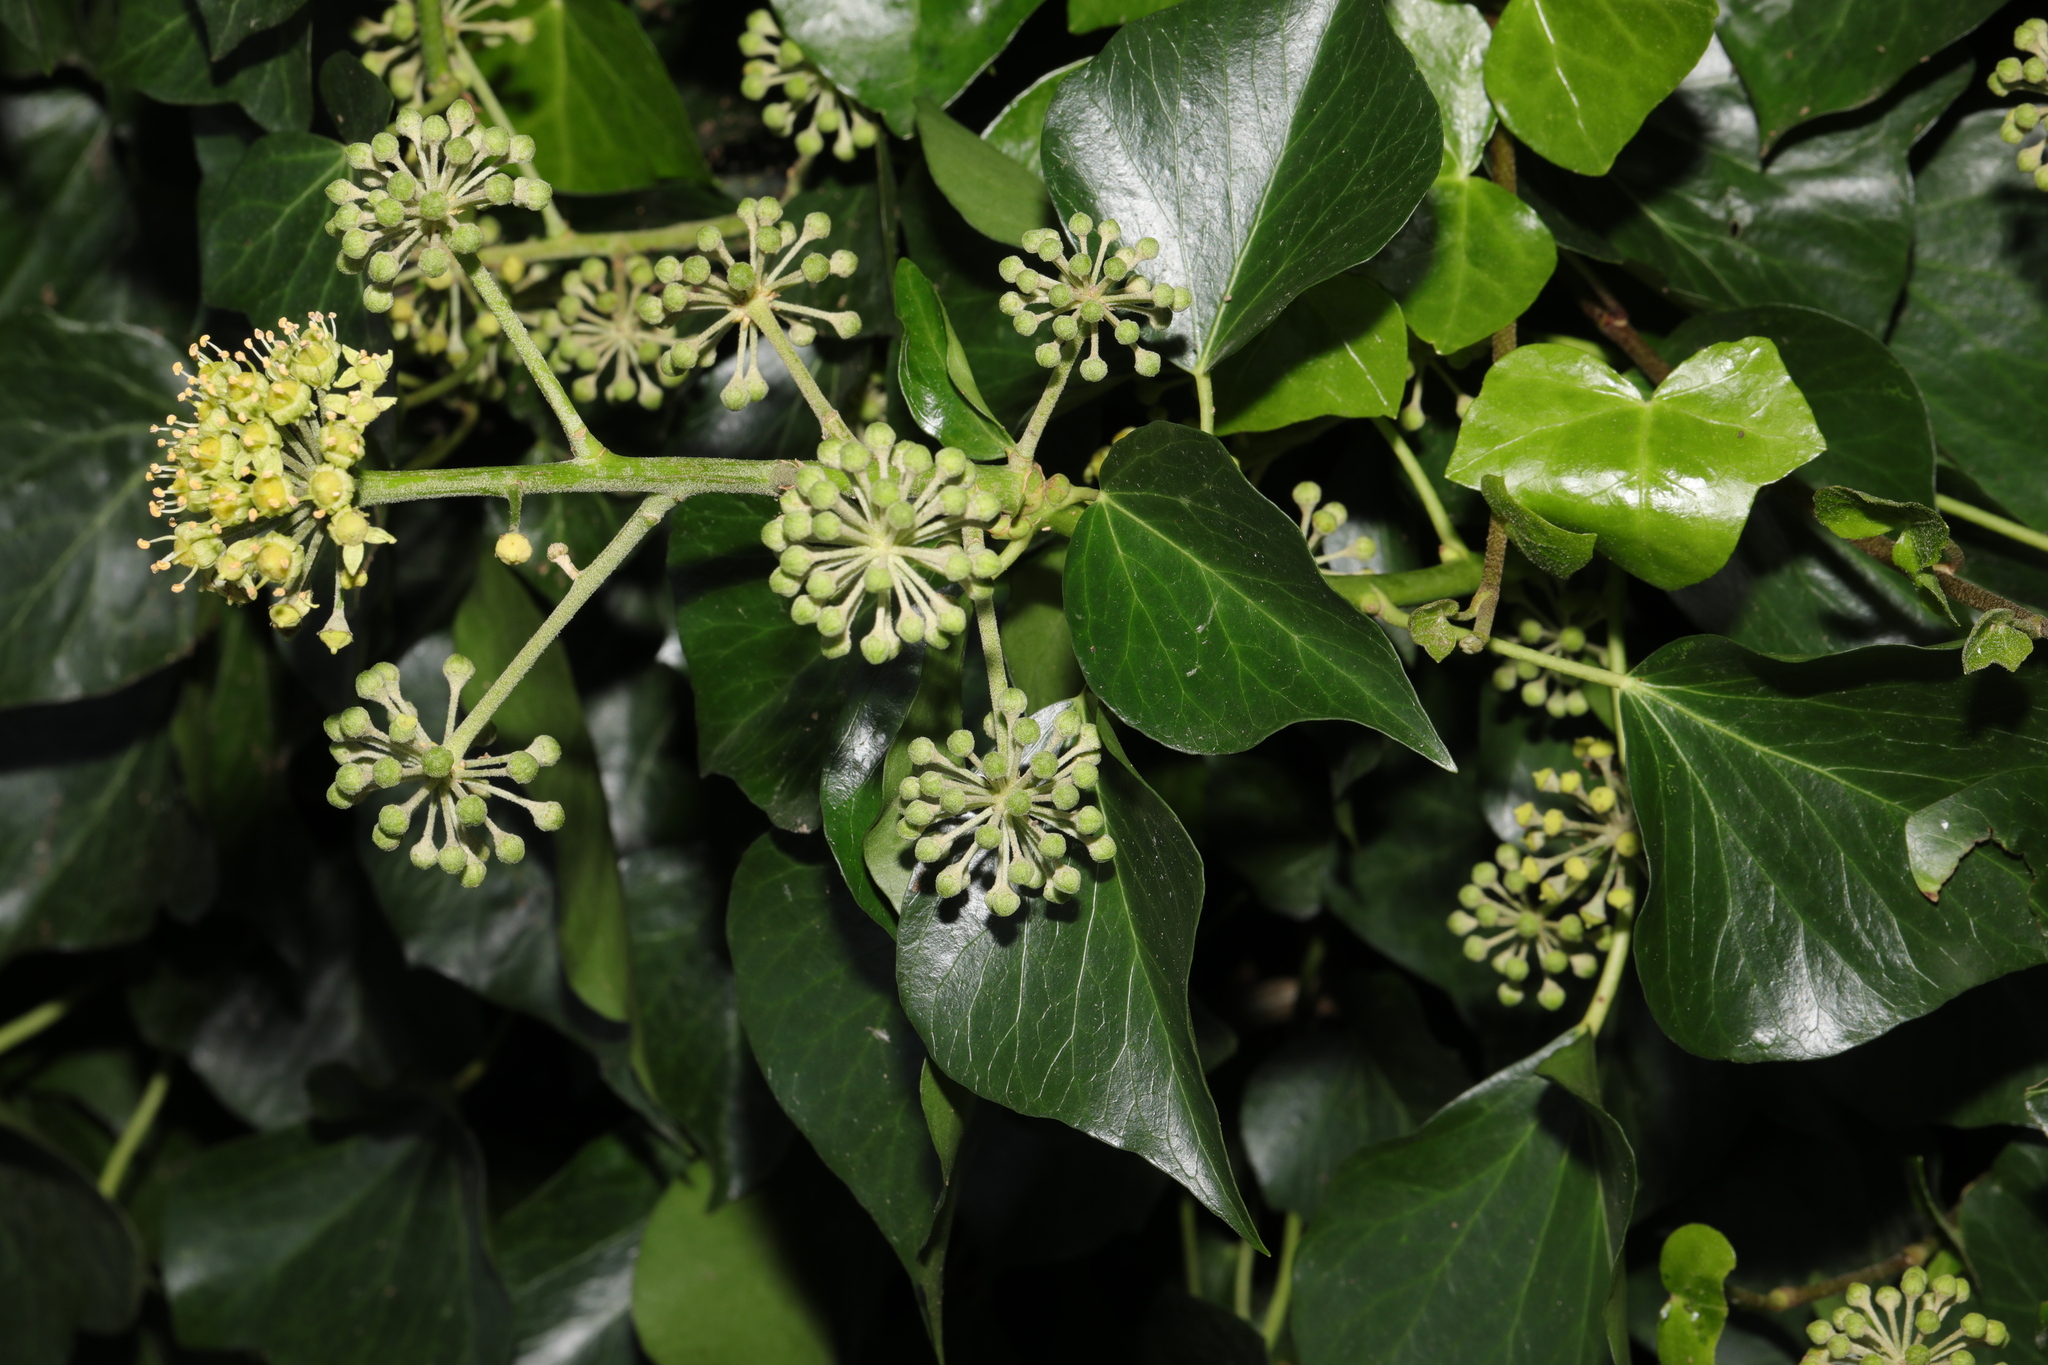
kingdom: Plantae
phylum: Tracheophyta
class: Magnoliopsida
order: Apiales
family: Araliaceae
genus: Hedera
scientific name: Hedera helix
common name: Ivy
